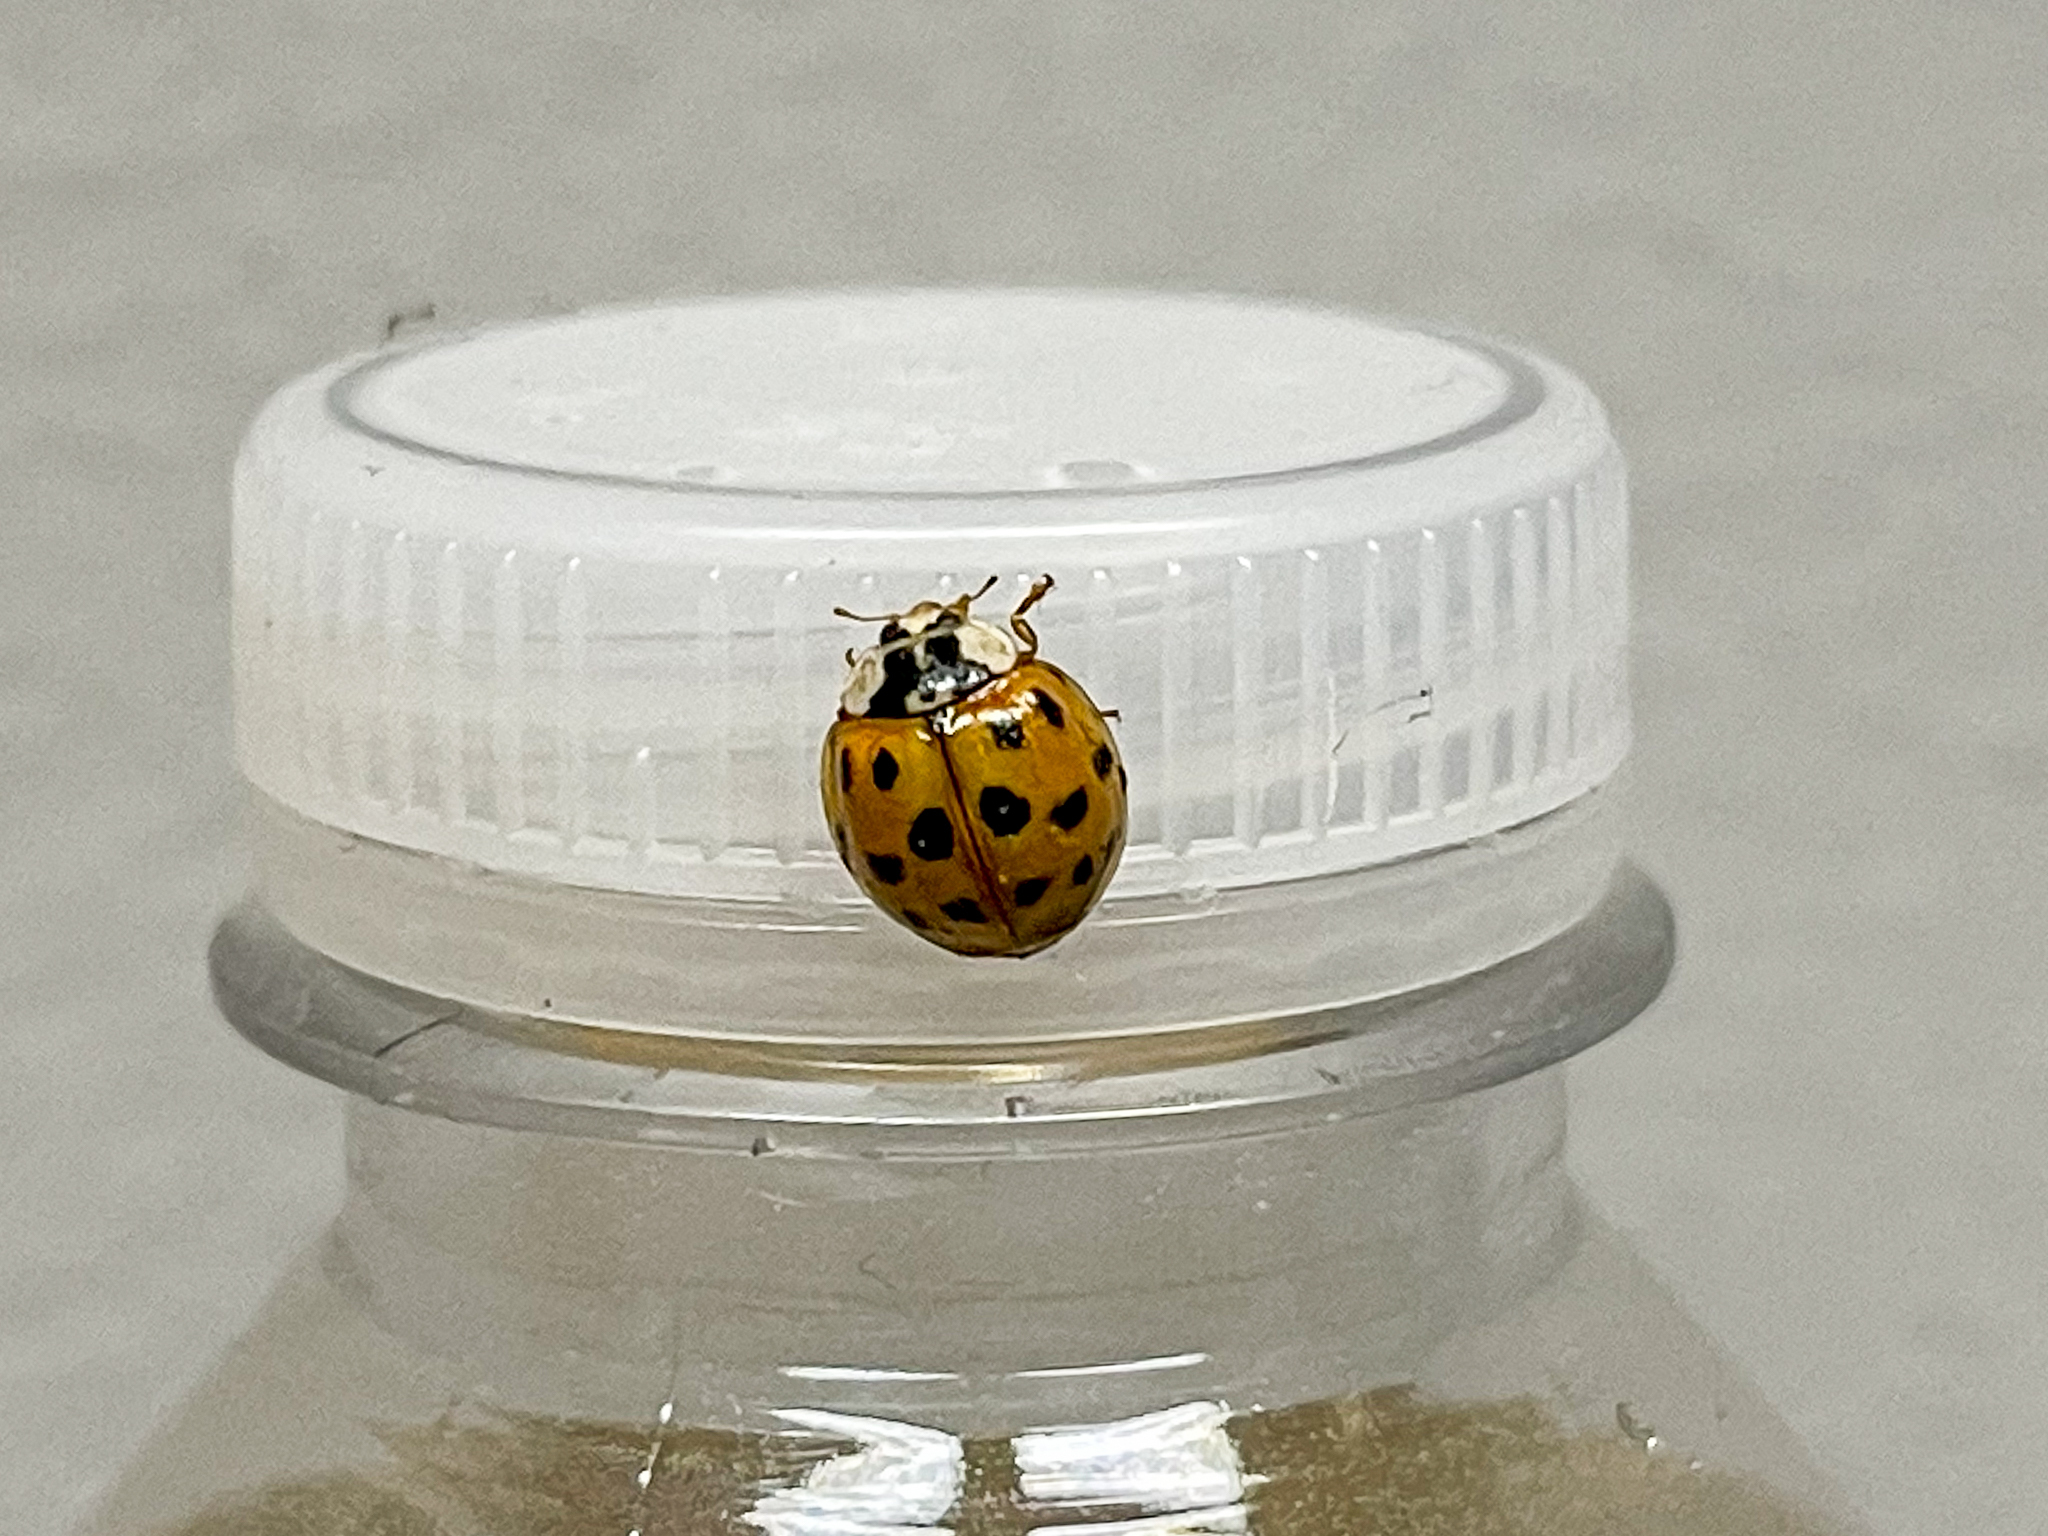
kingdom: Animalia
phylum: Arthropoda
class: Insecta
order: Coleoptera
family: Coccinellidae
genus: Harmonia
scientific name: Harmonia axyridis
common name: Harlequin ladybird
